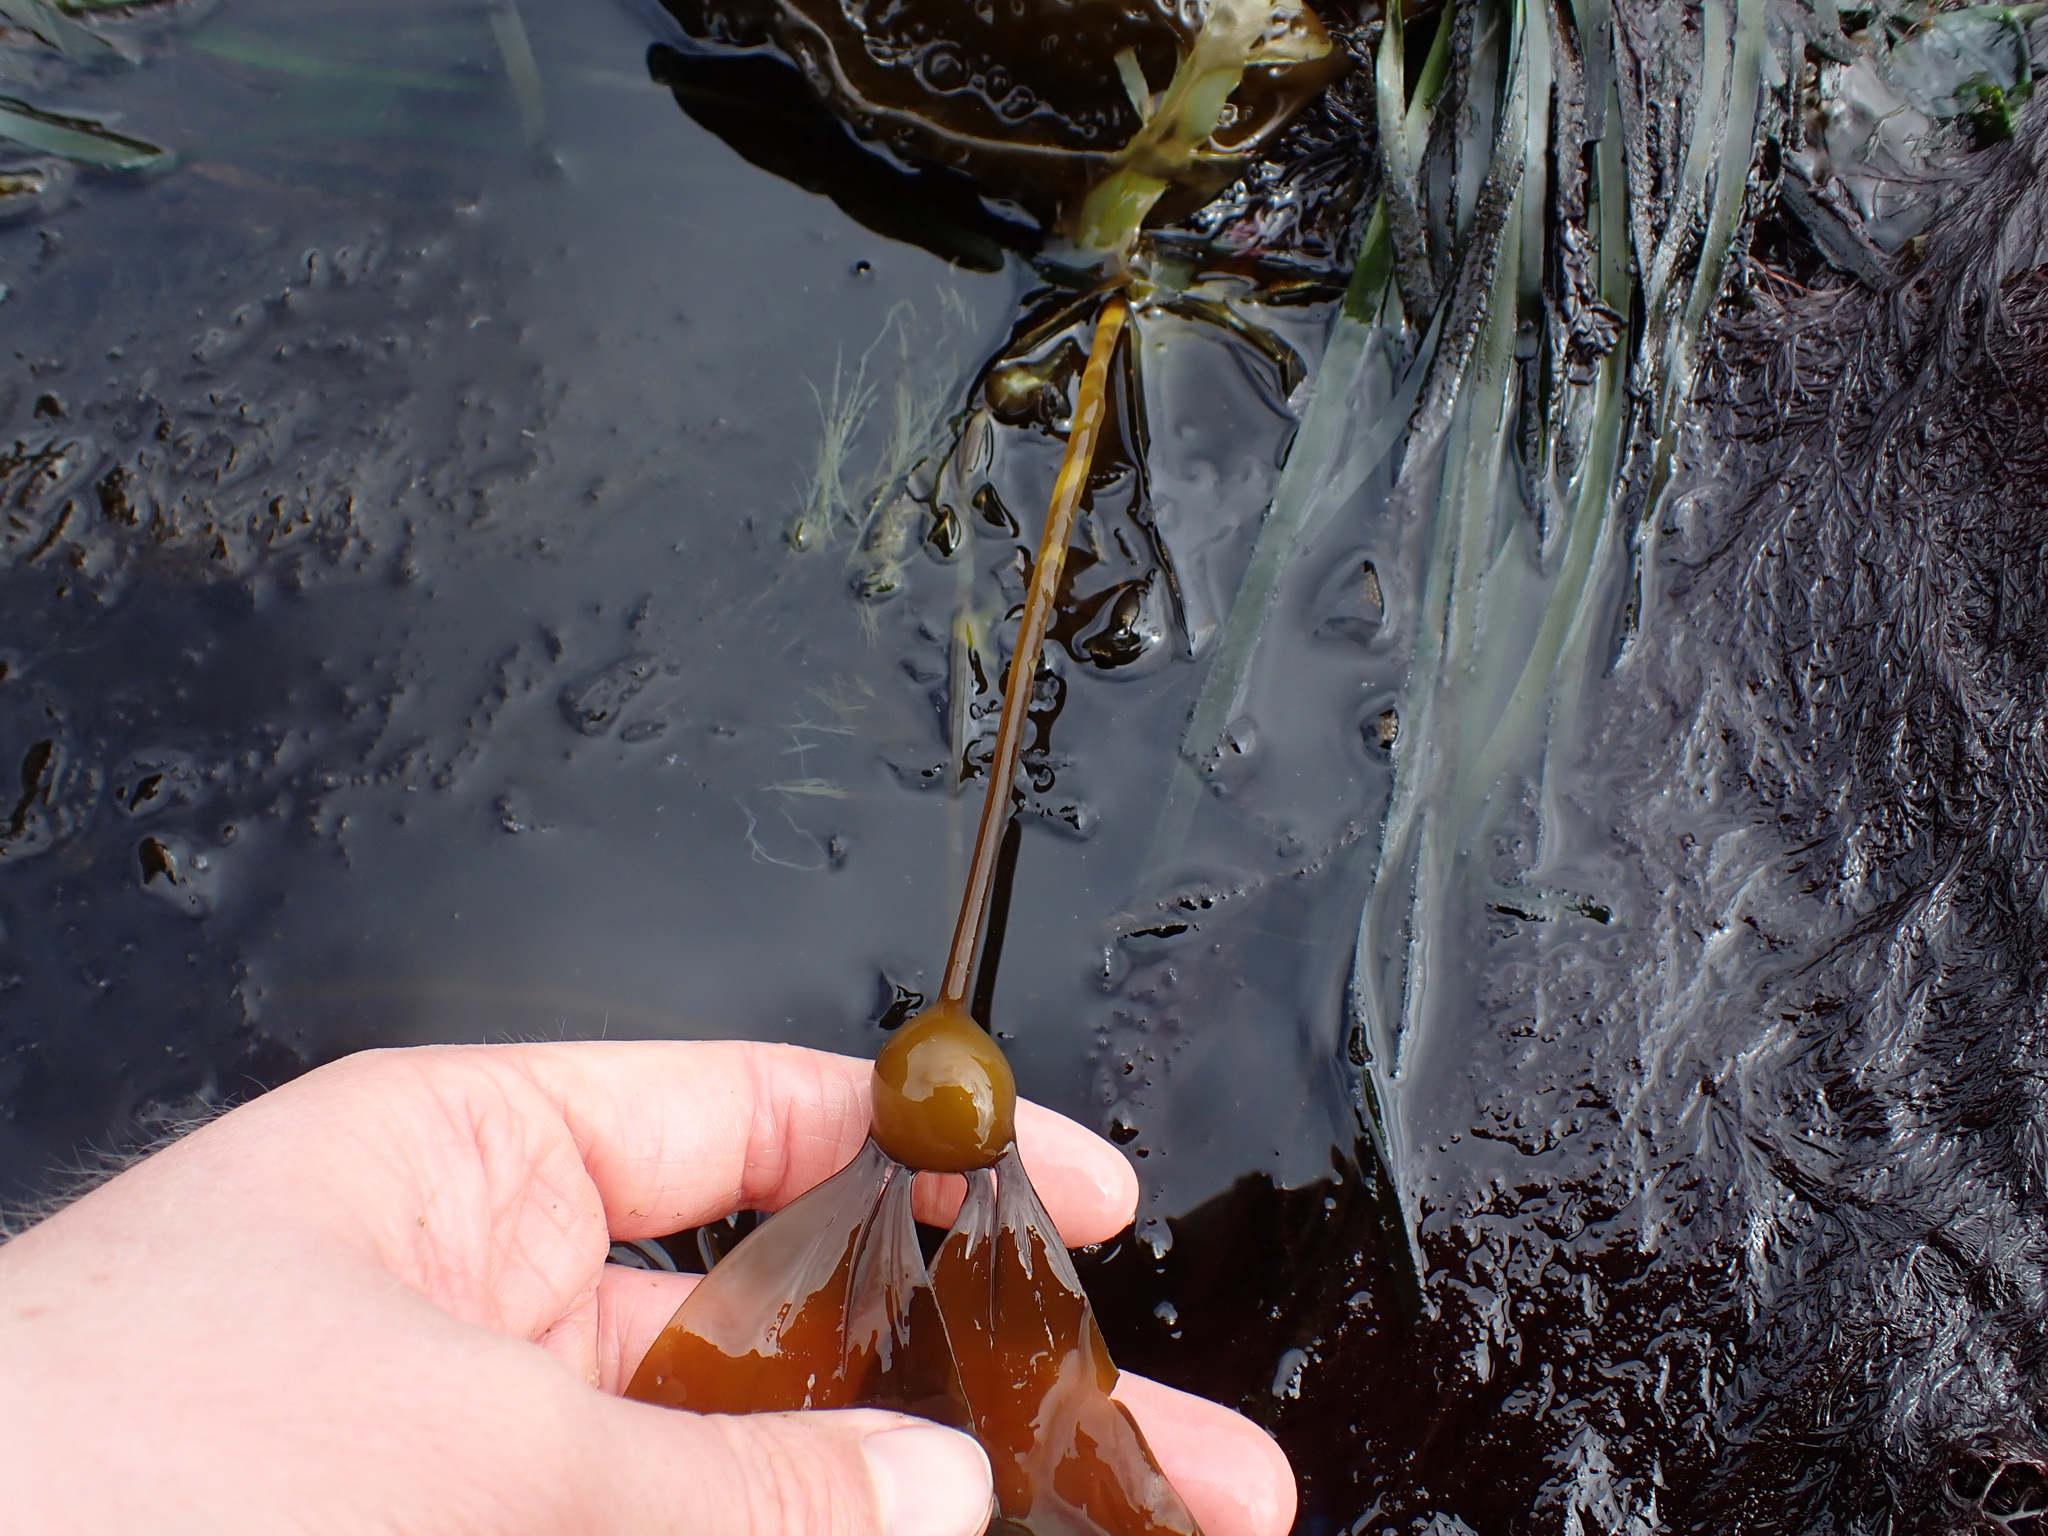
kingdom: Chromista
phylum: Ochrophyta
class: Phaeophyceae
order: Laminariales
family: Laminariaceae
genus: Nereocystis
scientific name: Nereocystis luetkeana
